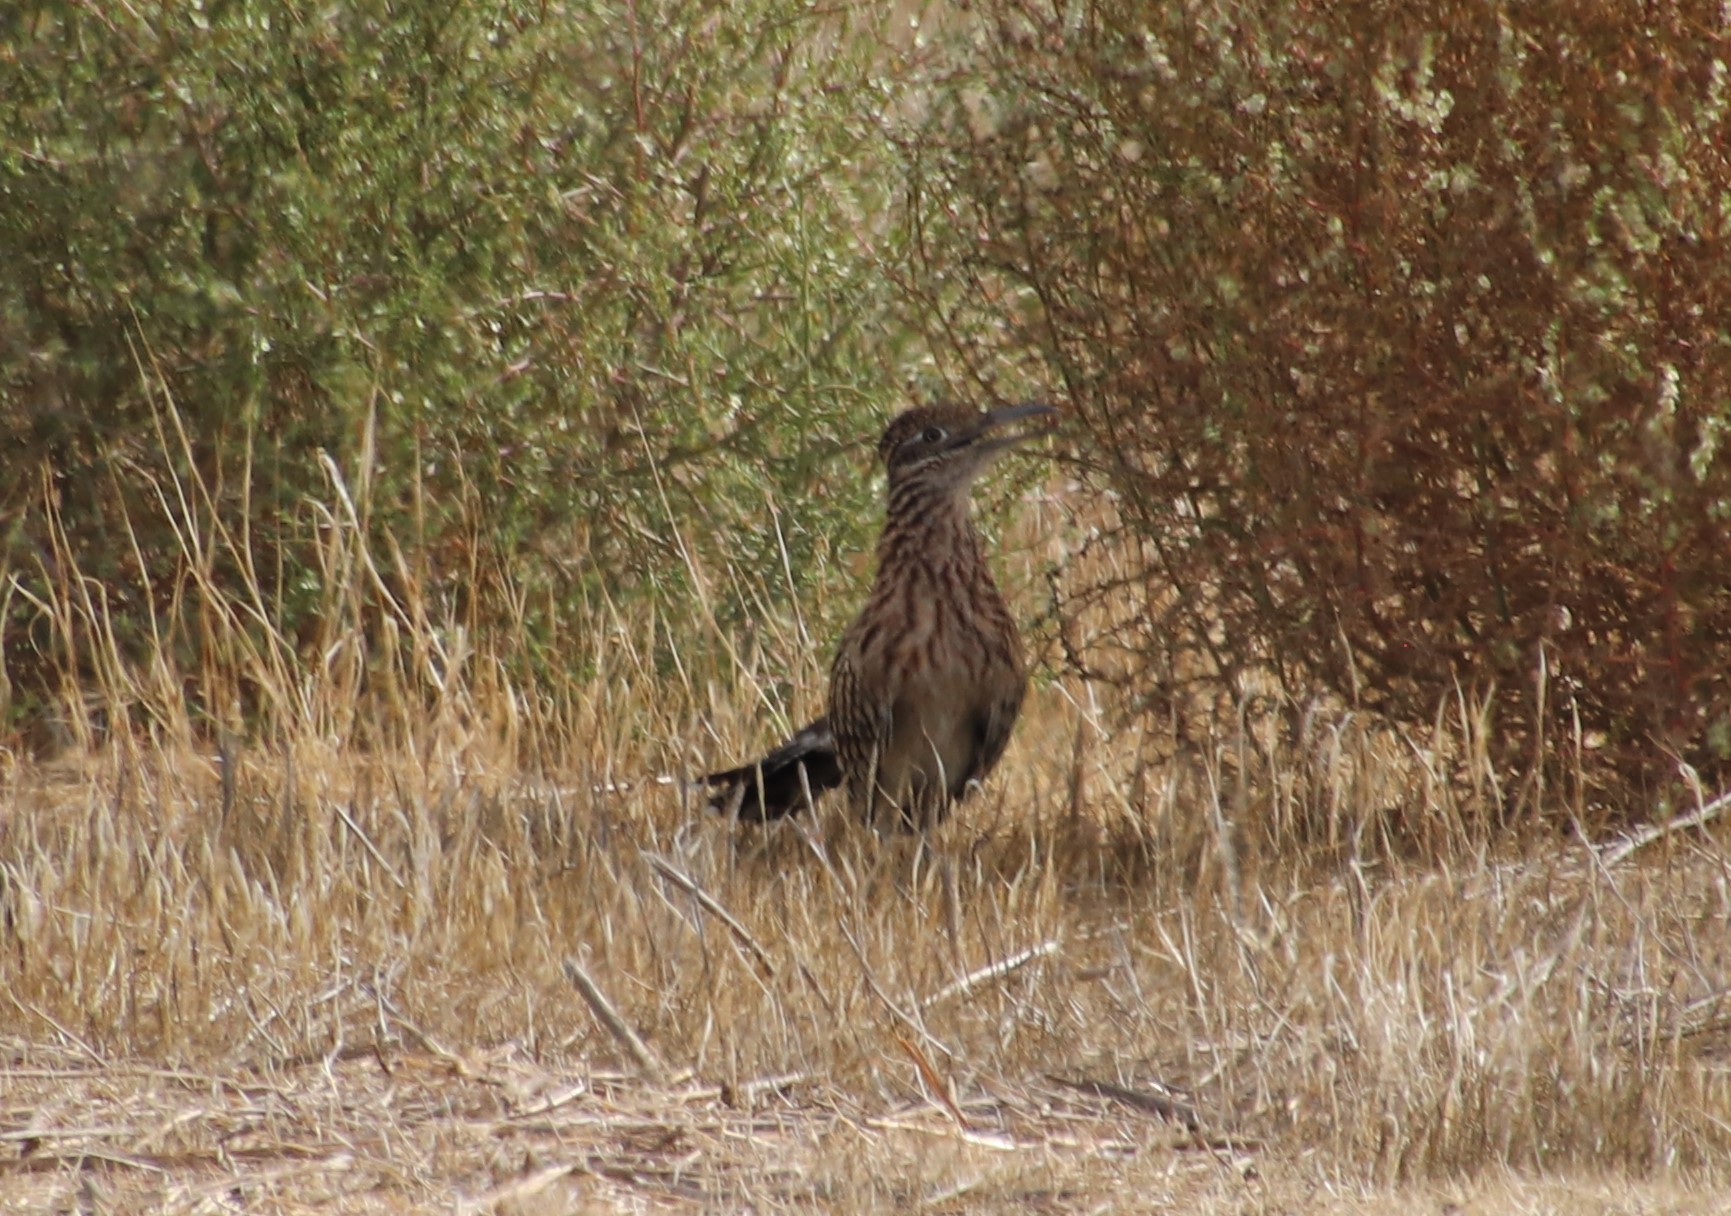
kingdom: Animalia
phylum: Chordata
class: Aves
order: Cuculiformes
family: Cuculidae
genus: Geococcyx
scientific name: Geococcyx californianus
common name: Greater roadrunner
